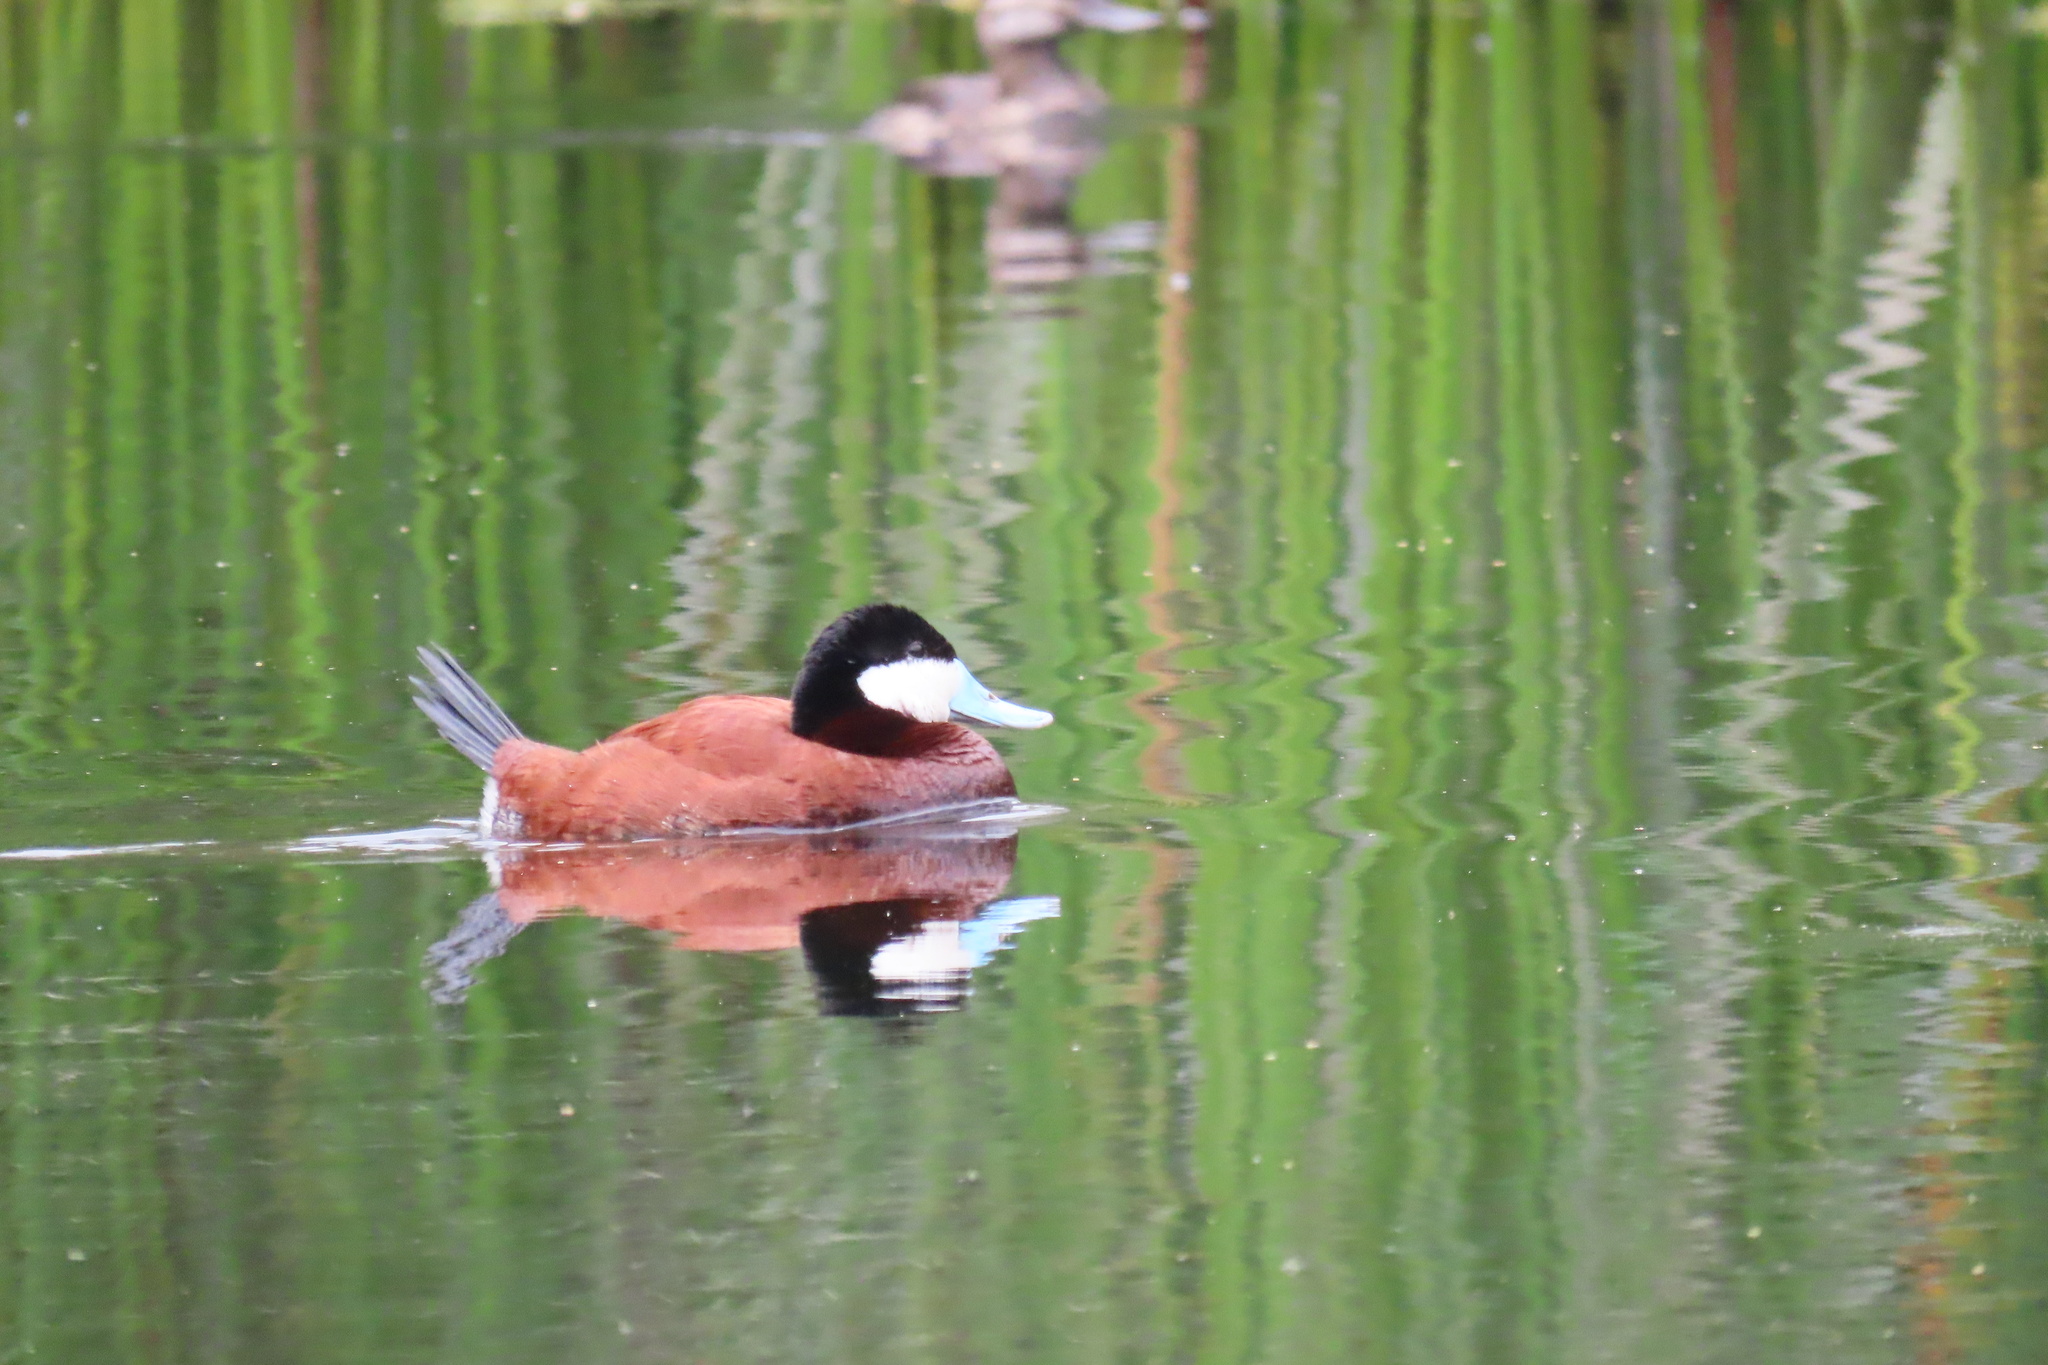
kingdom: Animalia
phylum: Chordata
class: Aves
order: Anseriformes
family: Anatidae
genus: Oxyura
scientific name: Oxyura jamaicensis
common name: Ruddy duck
